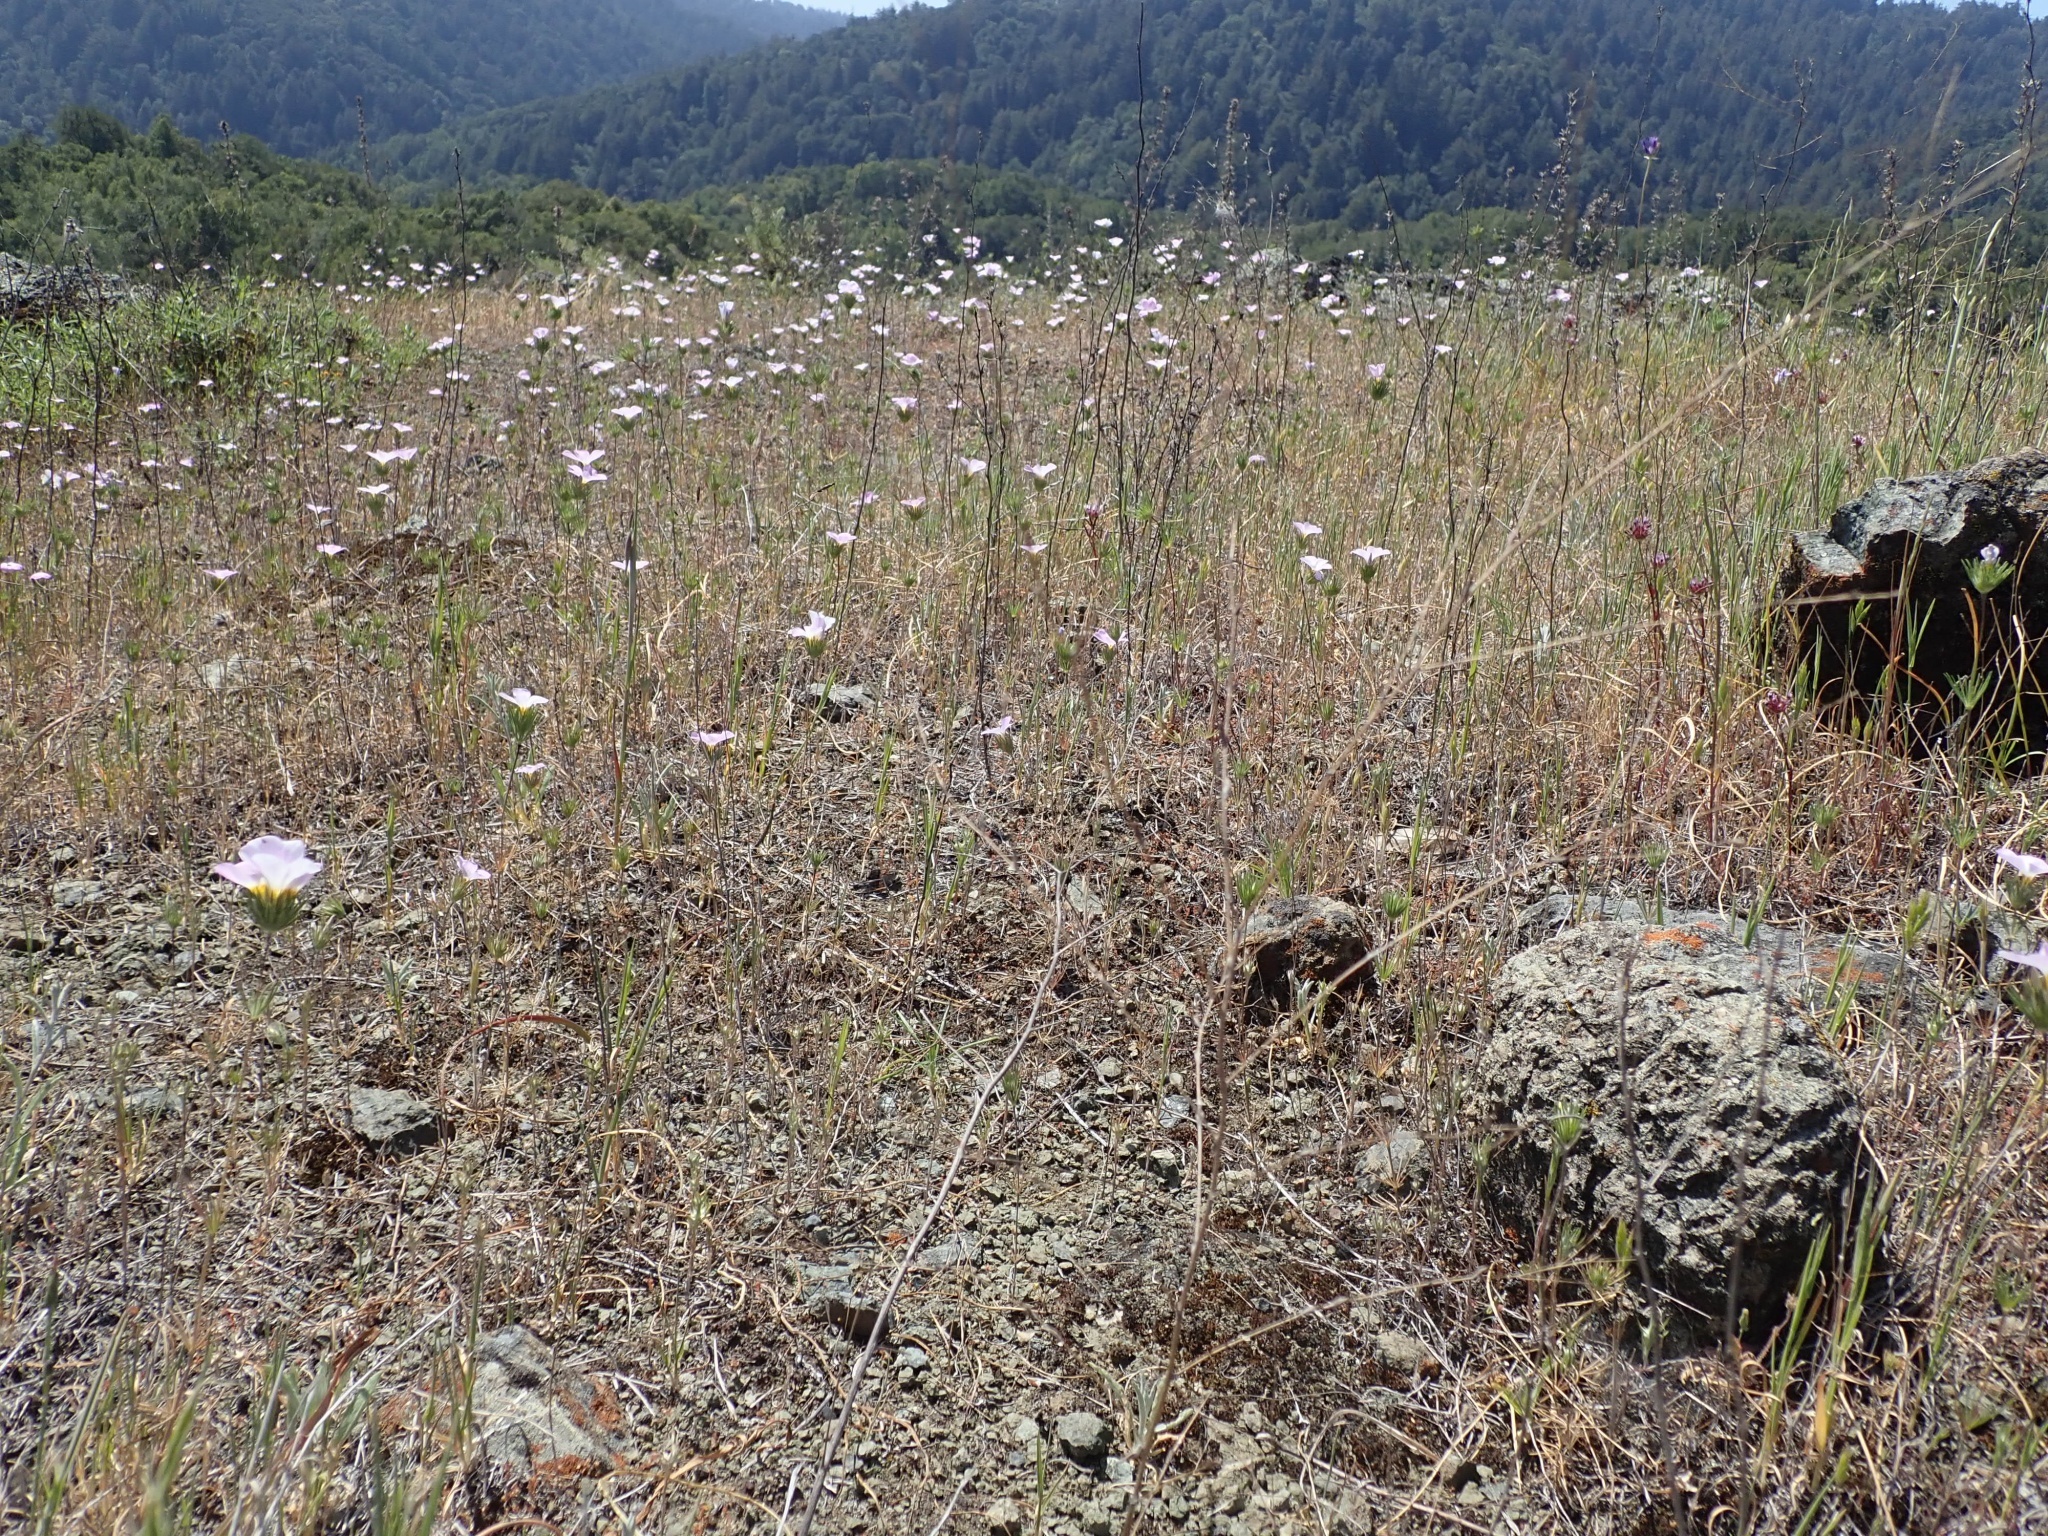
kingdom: Plantae
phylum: Tracheophyta
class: Magnoliopsida
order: Ericales
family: Polemoniaceae
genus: Leptosiphon
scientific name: Leptosiphon grandiflorus
